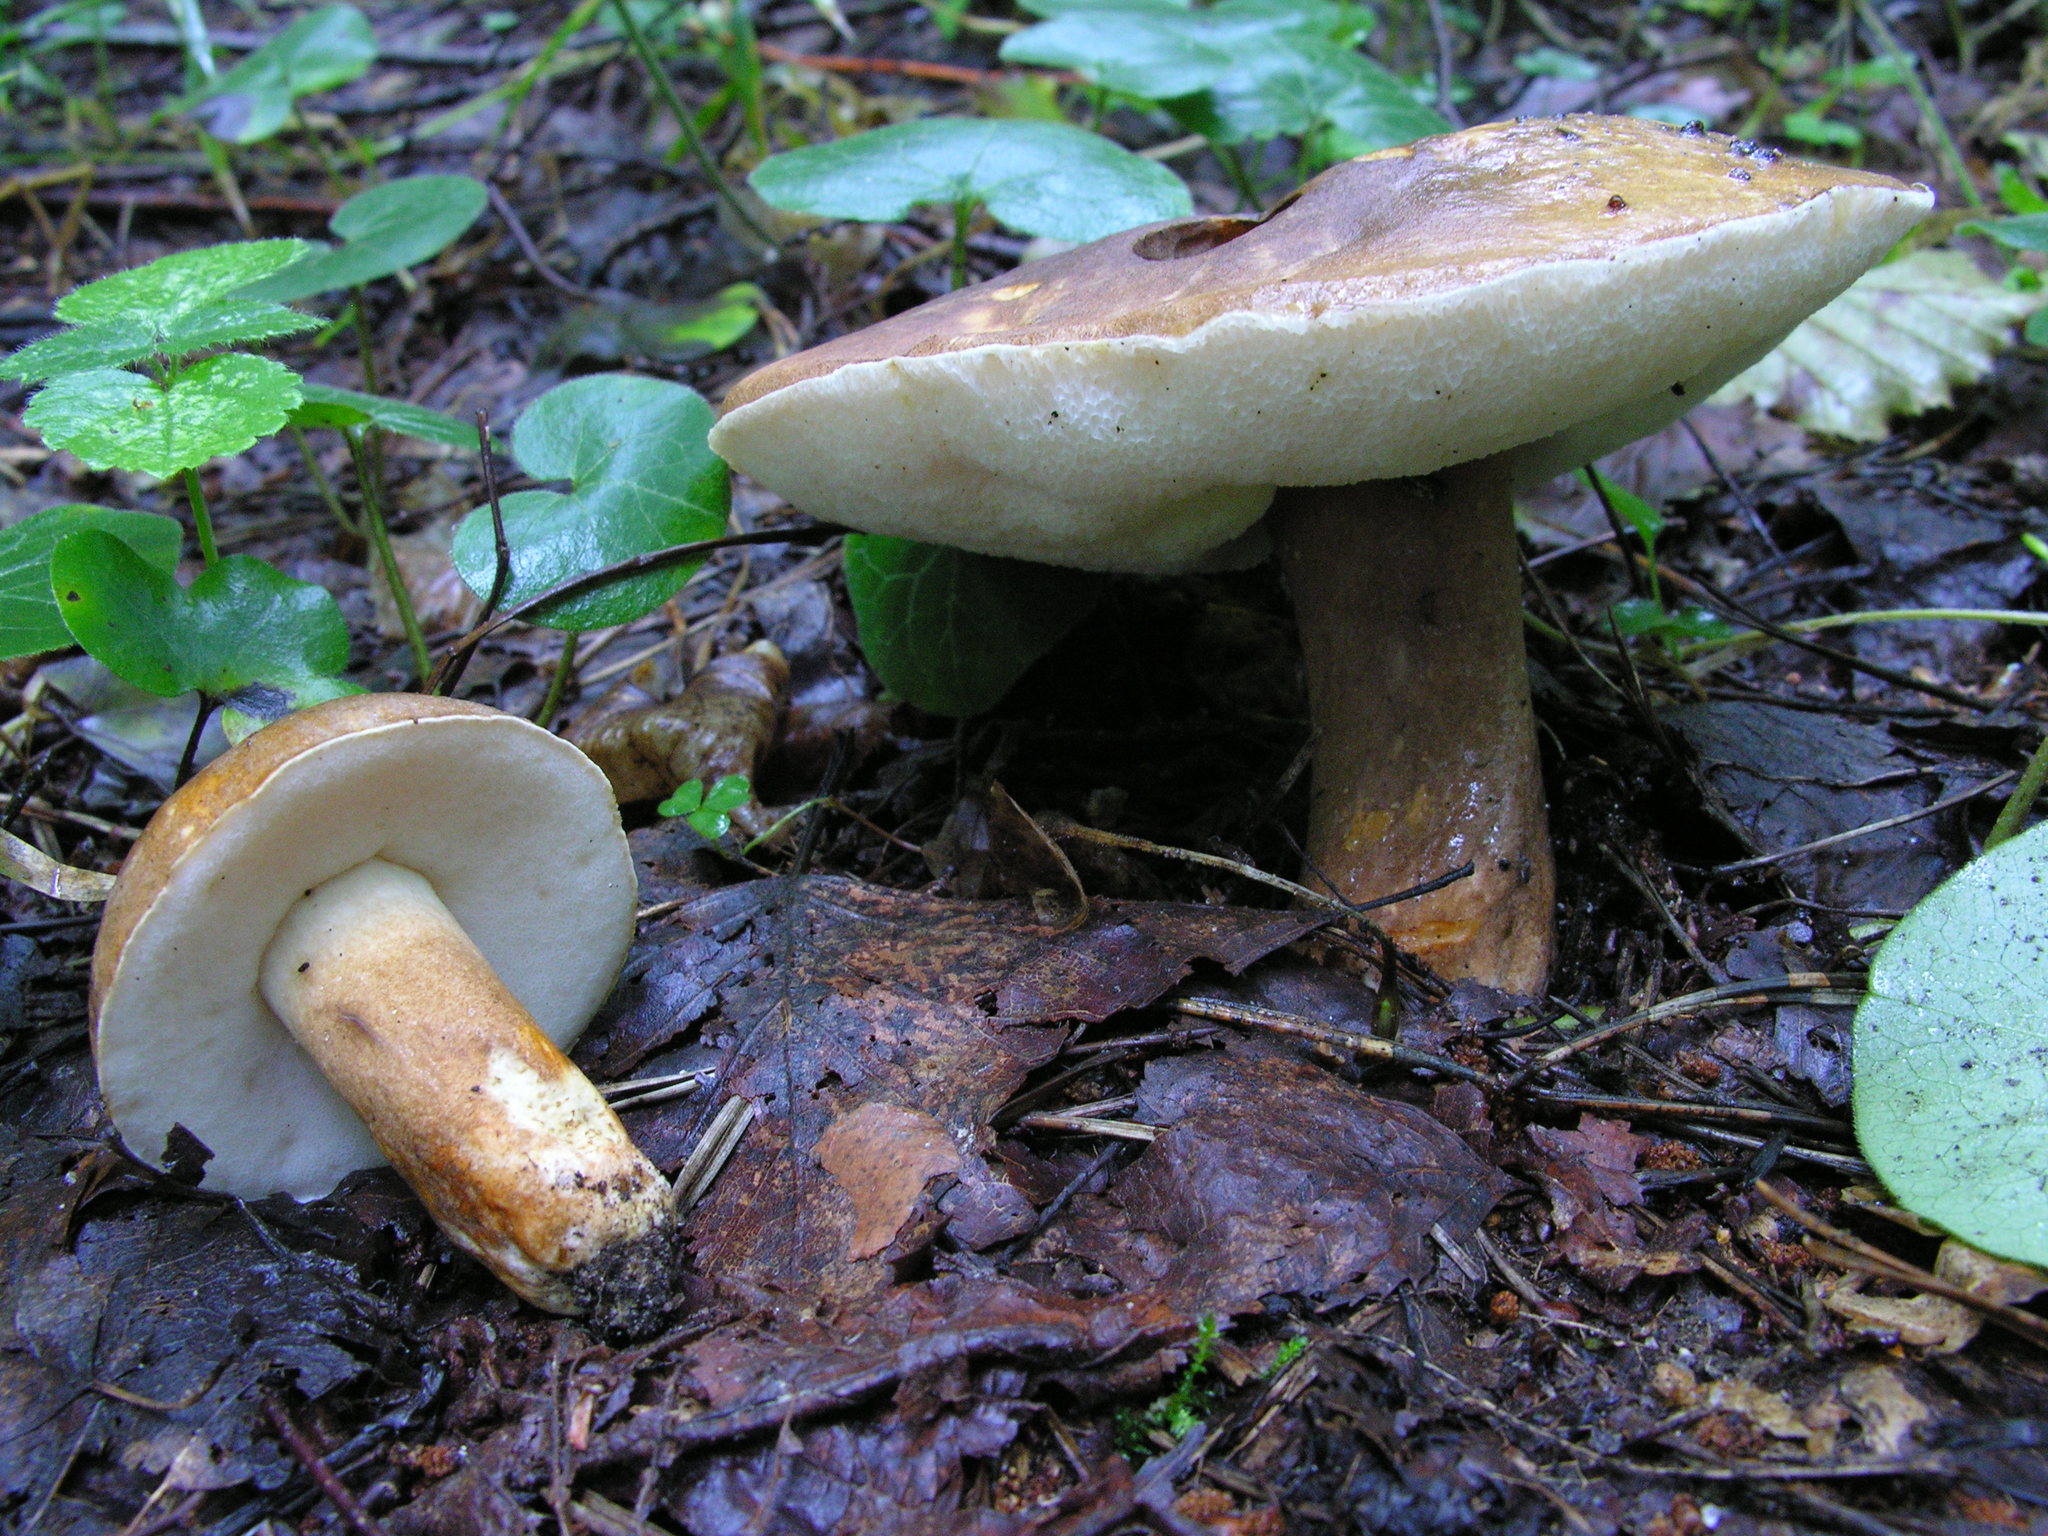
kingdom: Fungi
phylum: Basidiomycota
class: Agaricomycetes
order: Boletales
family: Gyroporaceae
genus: Gyroporus
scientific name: Gyroporus castaneus
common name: Chestnut bolete
